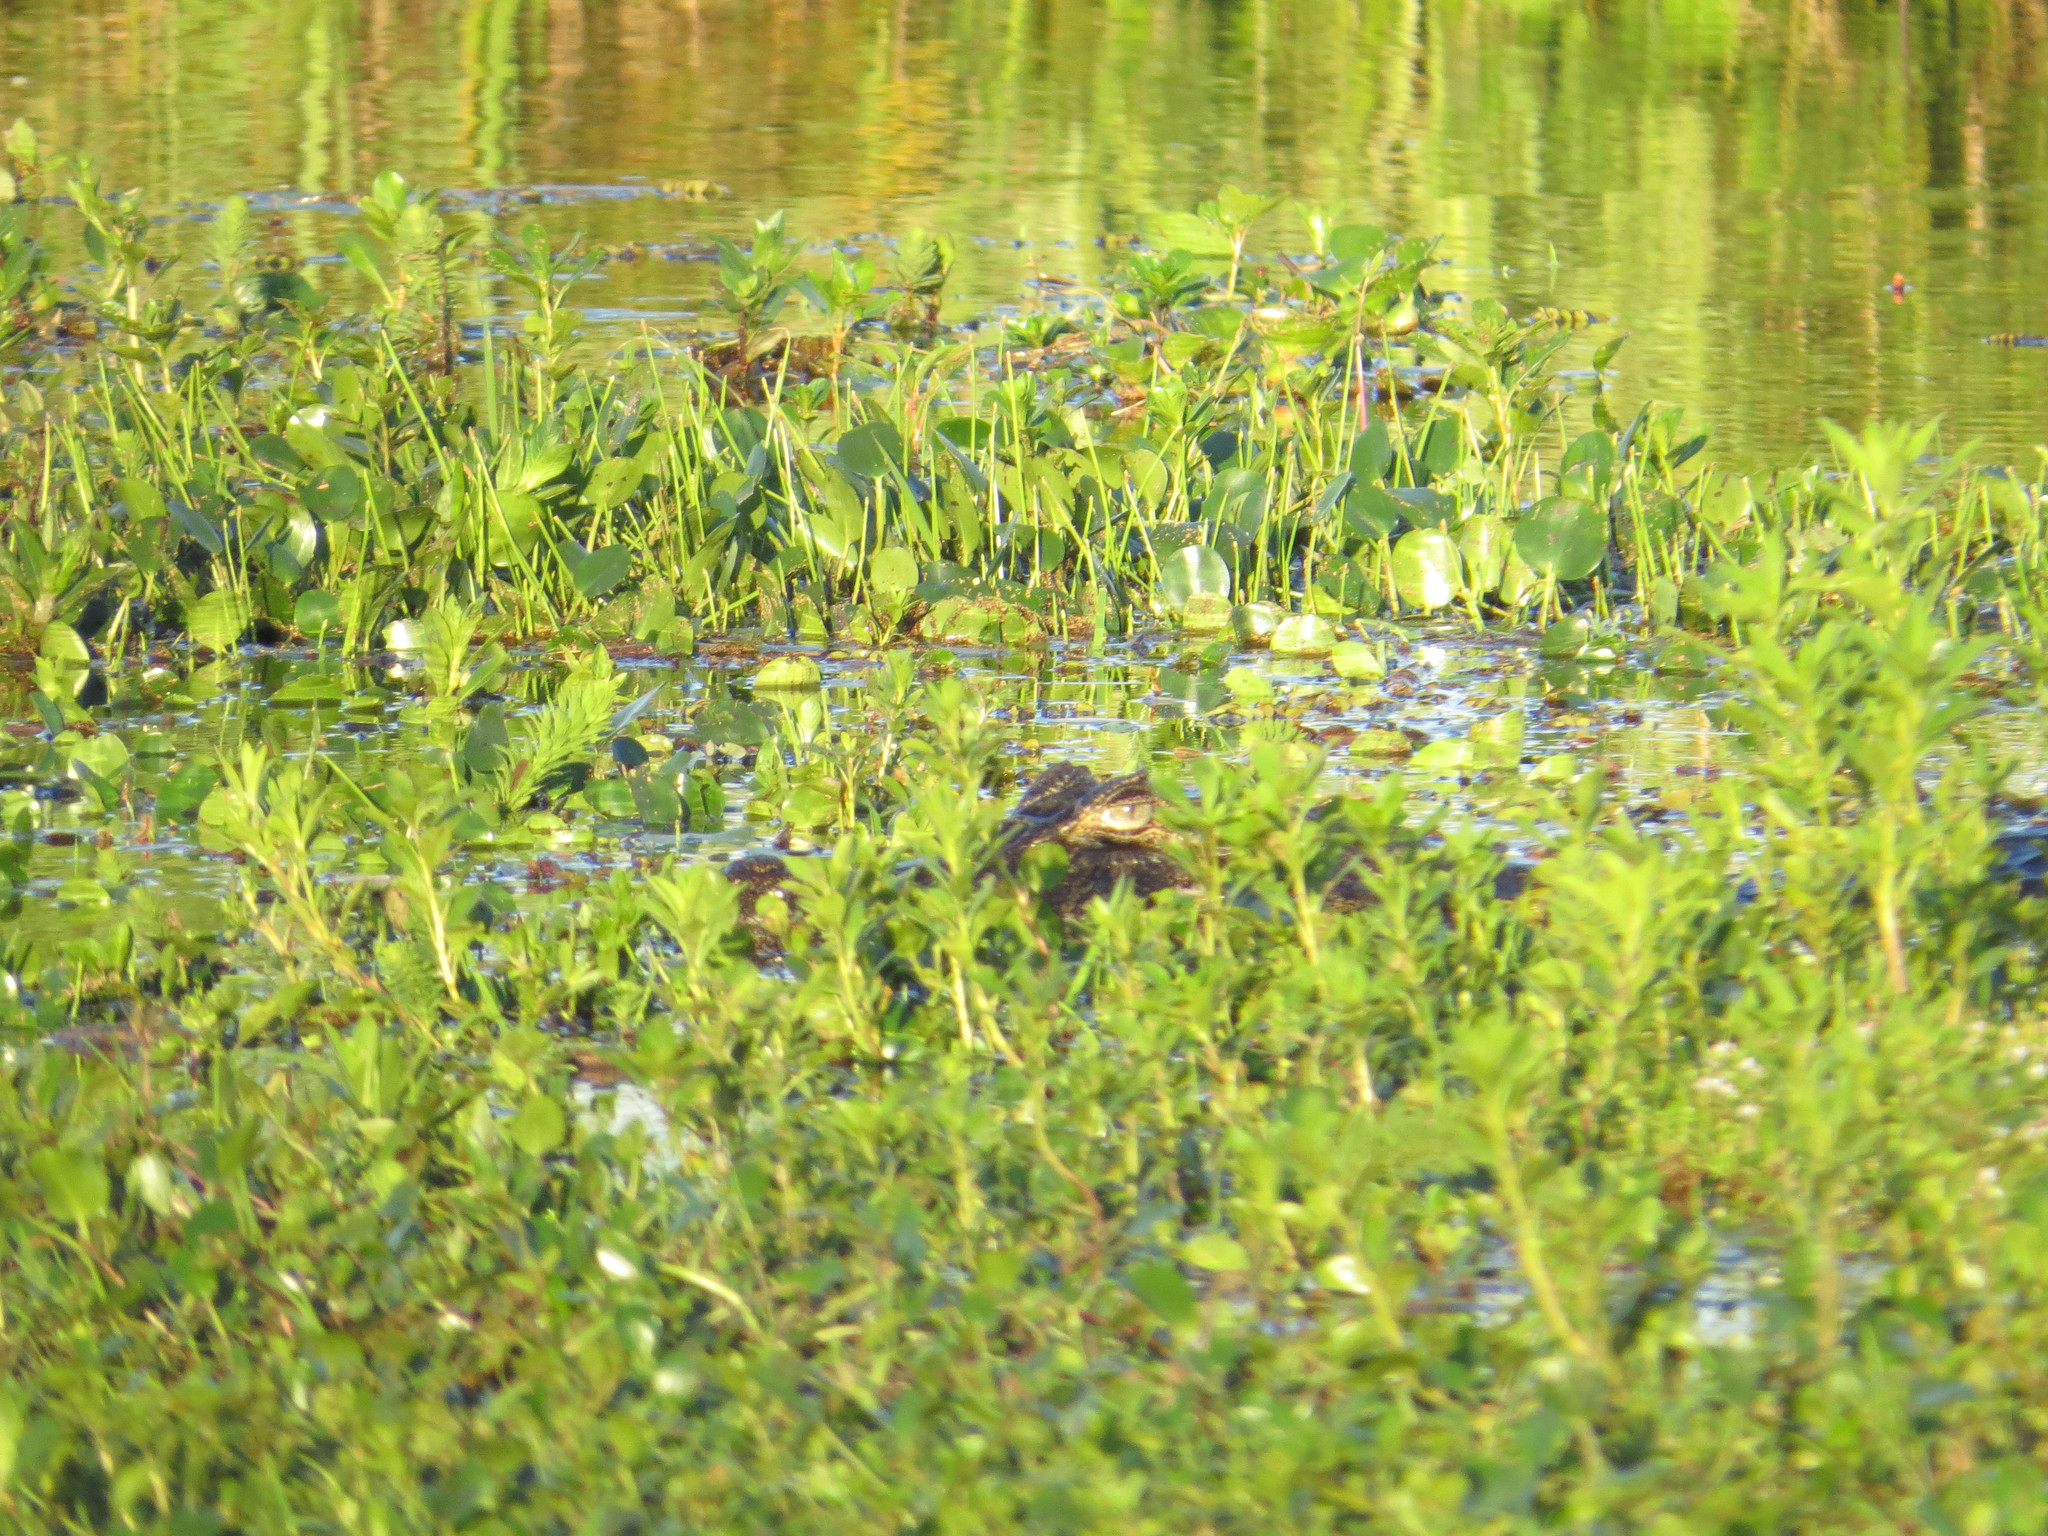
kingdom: Animalia
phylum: Chordata
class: Crocodylia
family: Alligatoridae
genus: Caiman
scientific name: Caiman yacare
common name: Yacare caiman
